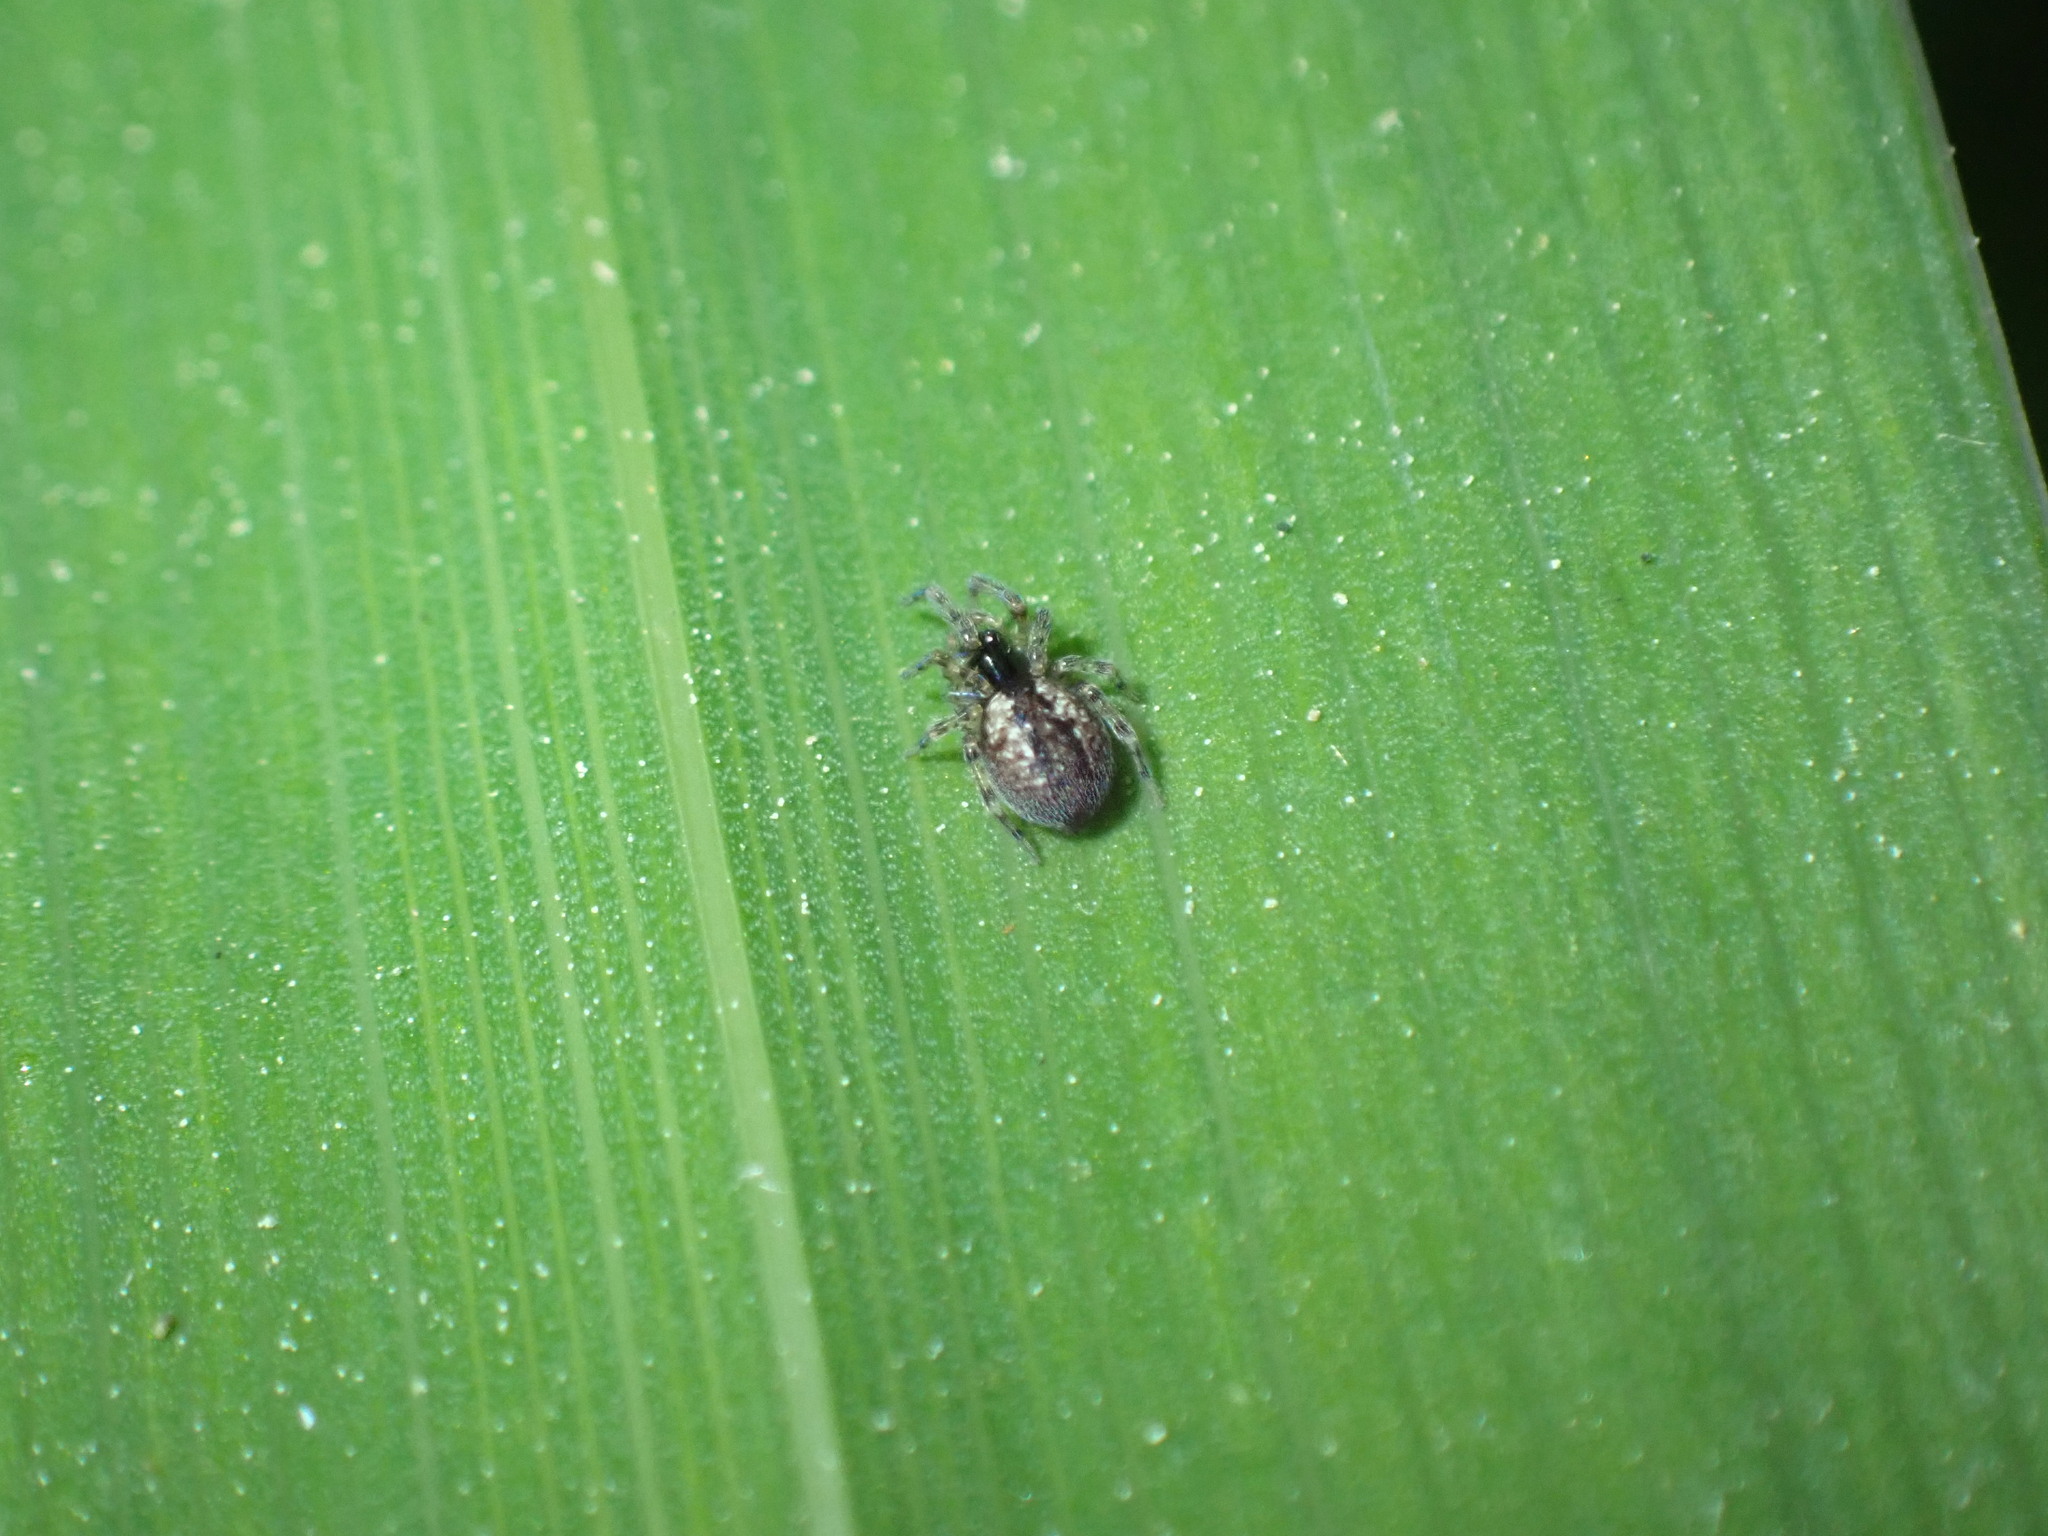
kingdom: Animalia
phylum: Arthropoda
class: Arachnida
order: Araneae
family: Dictynidae
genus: Lathys
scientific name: Lathys humilis
